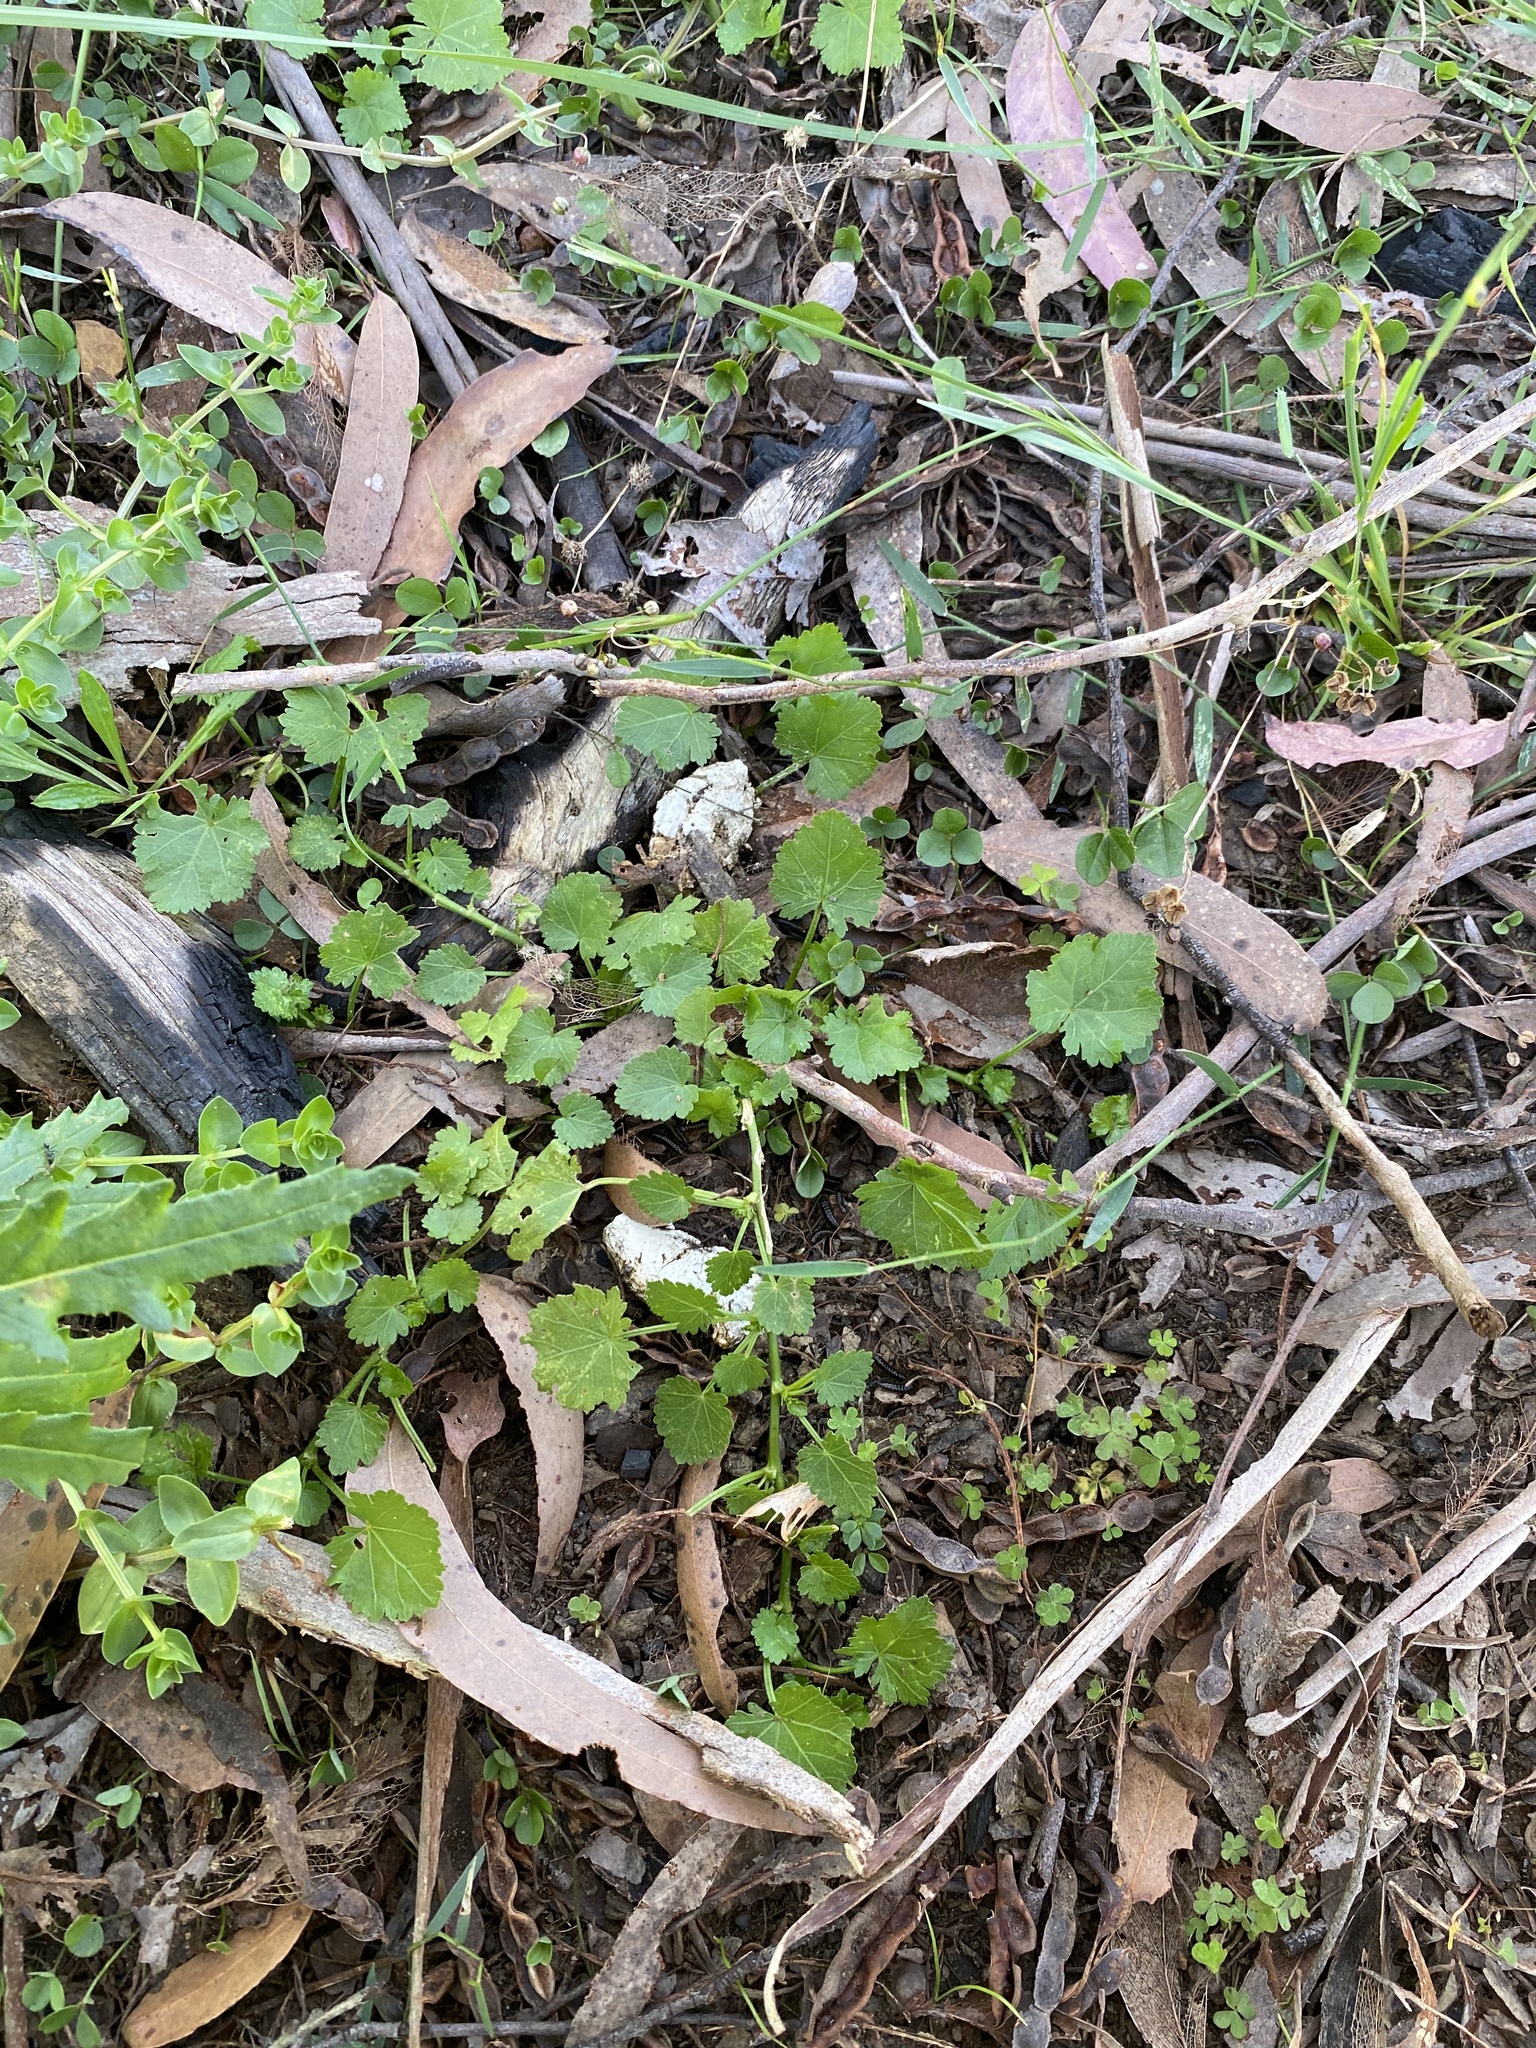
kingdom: Plantae
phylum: Tracheophyta
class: Magnoliopsida
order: Malvales
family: Malvaceae
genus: Modiola
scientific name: Modiola caroliniana
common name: Carolina bristlemallow
